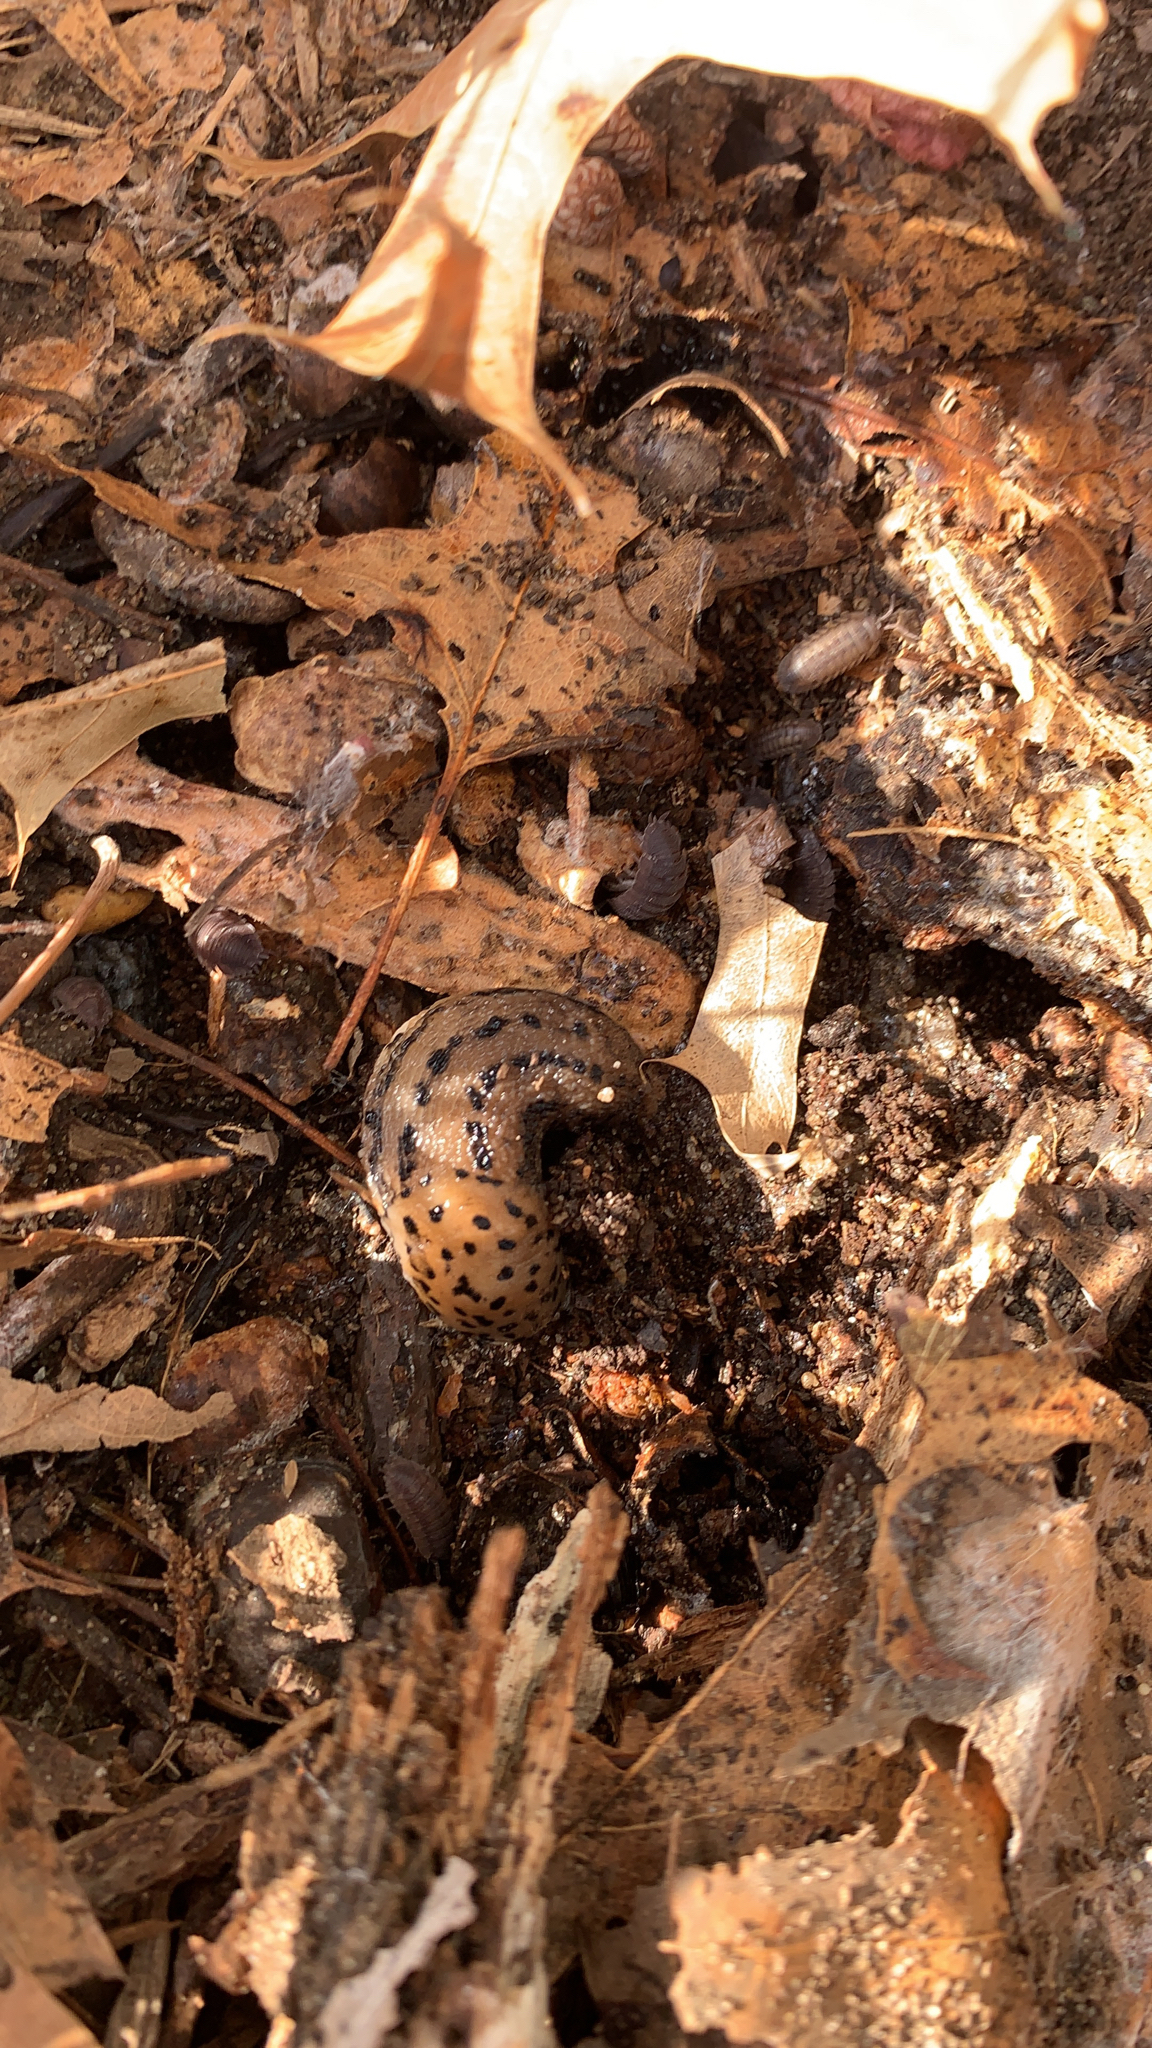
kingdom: Animalia
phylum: Mollusca
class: Gastropoda
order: Stylommatophora
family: Limacidae
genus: Limax
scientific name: Limax maximus
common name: Great grey slug
